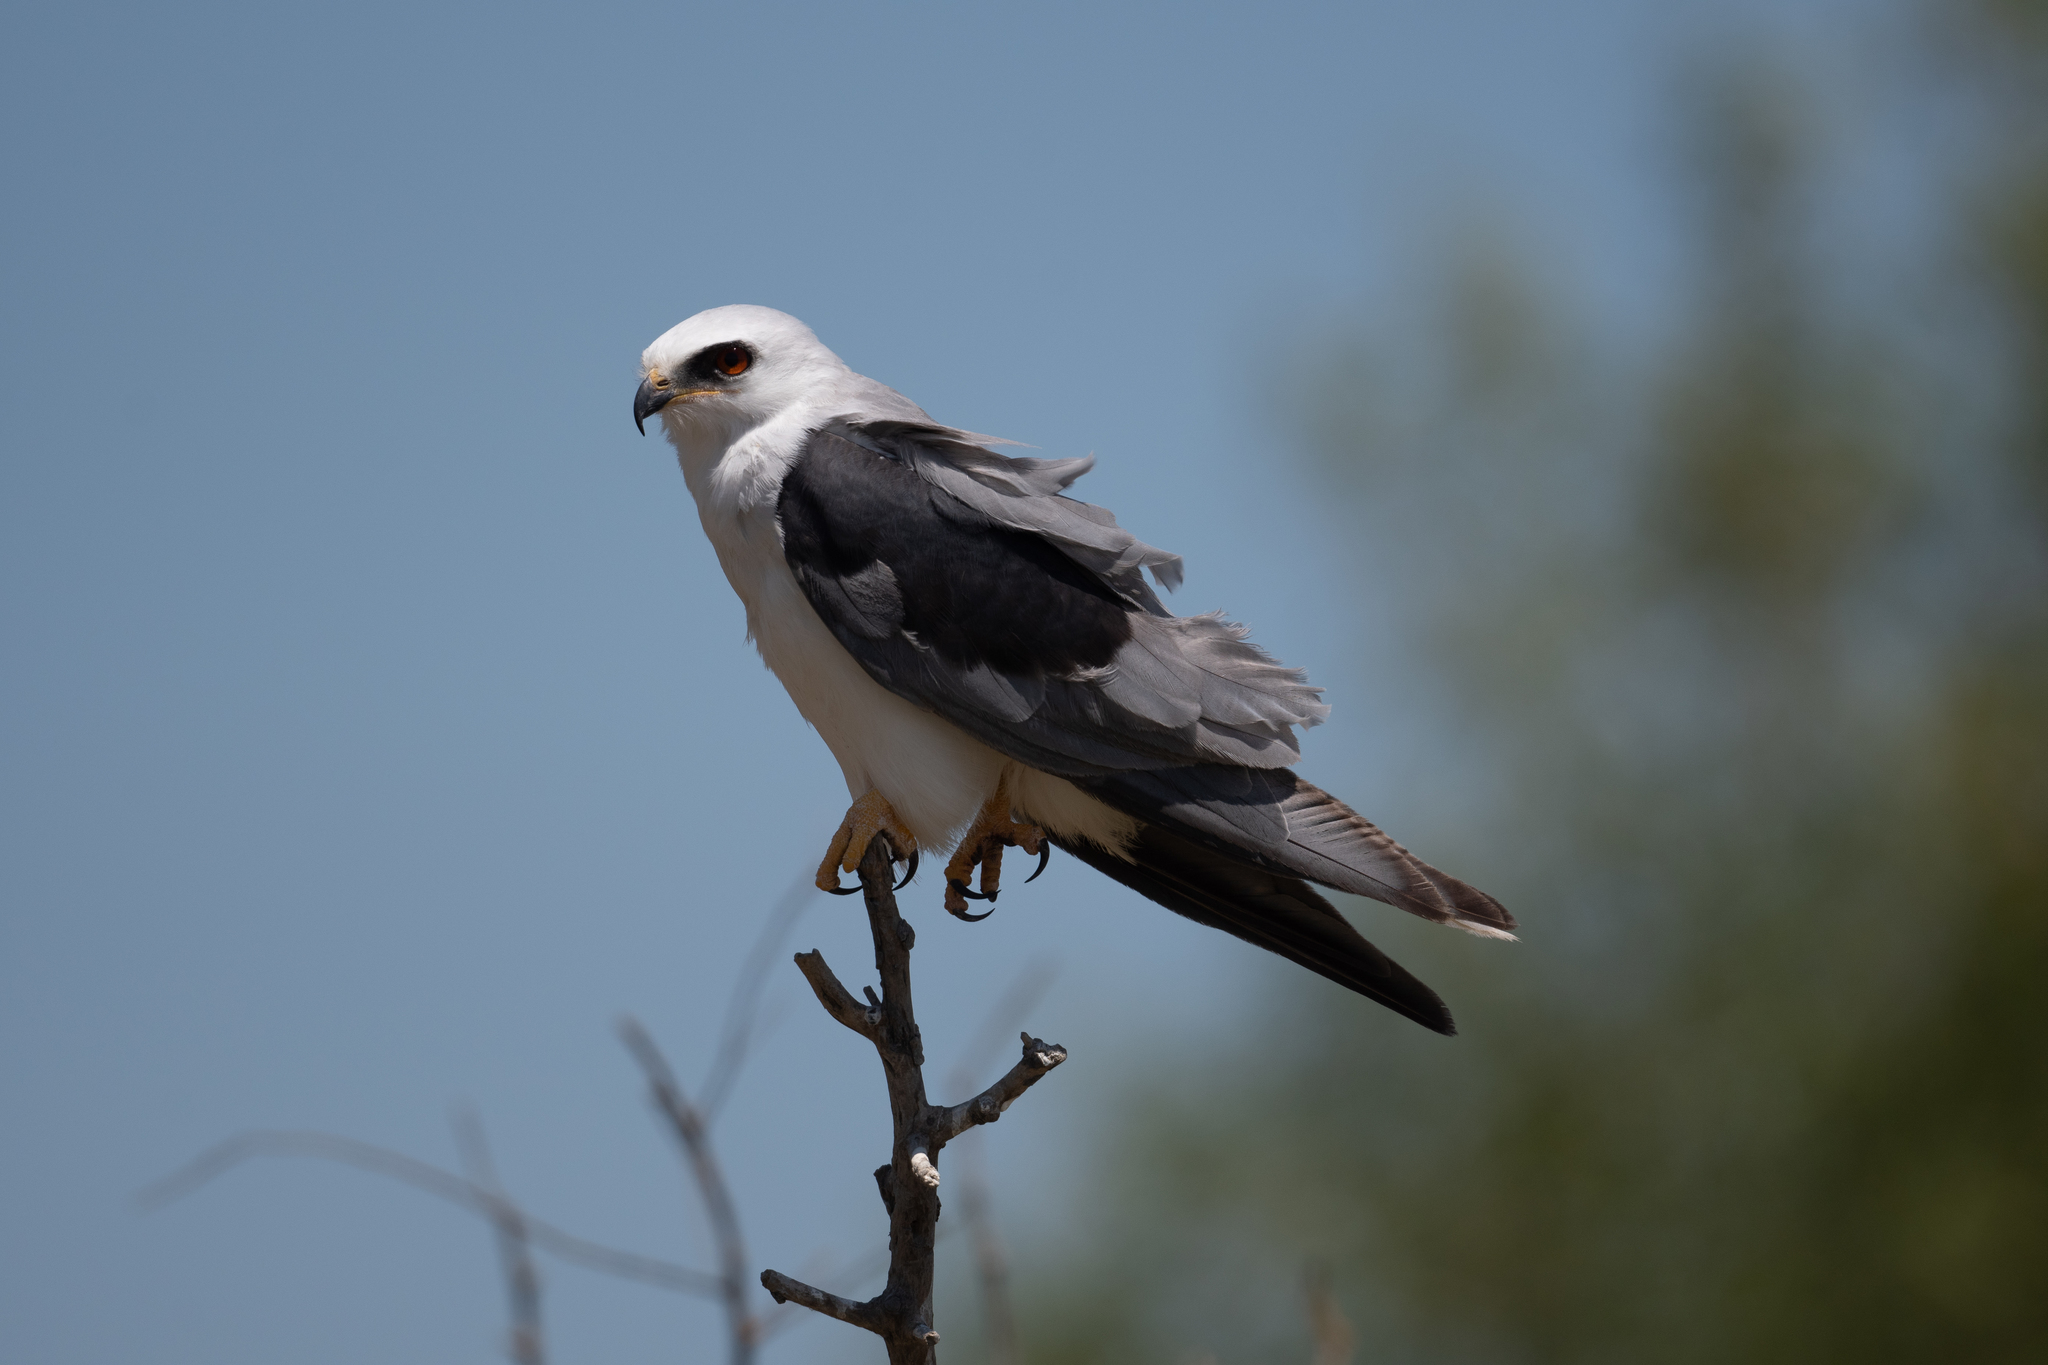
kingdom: Animalia
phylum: Chordata
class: Aves
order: Accipitriformes
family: Accipitridae
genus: Elanus
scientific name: Elanus leucurus
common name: White-tailed kite
